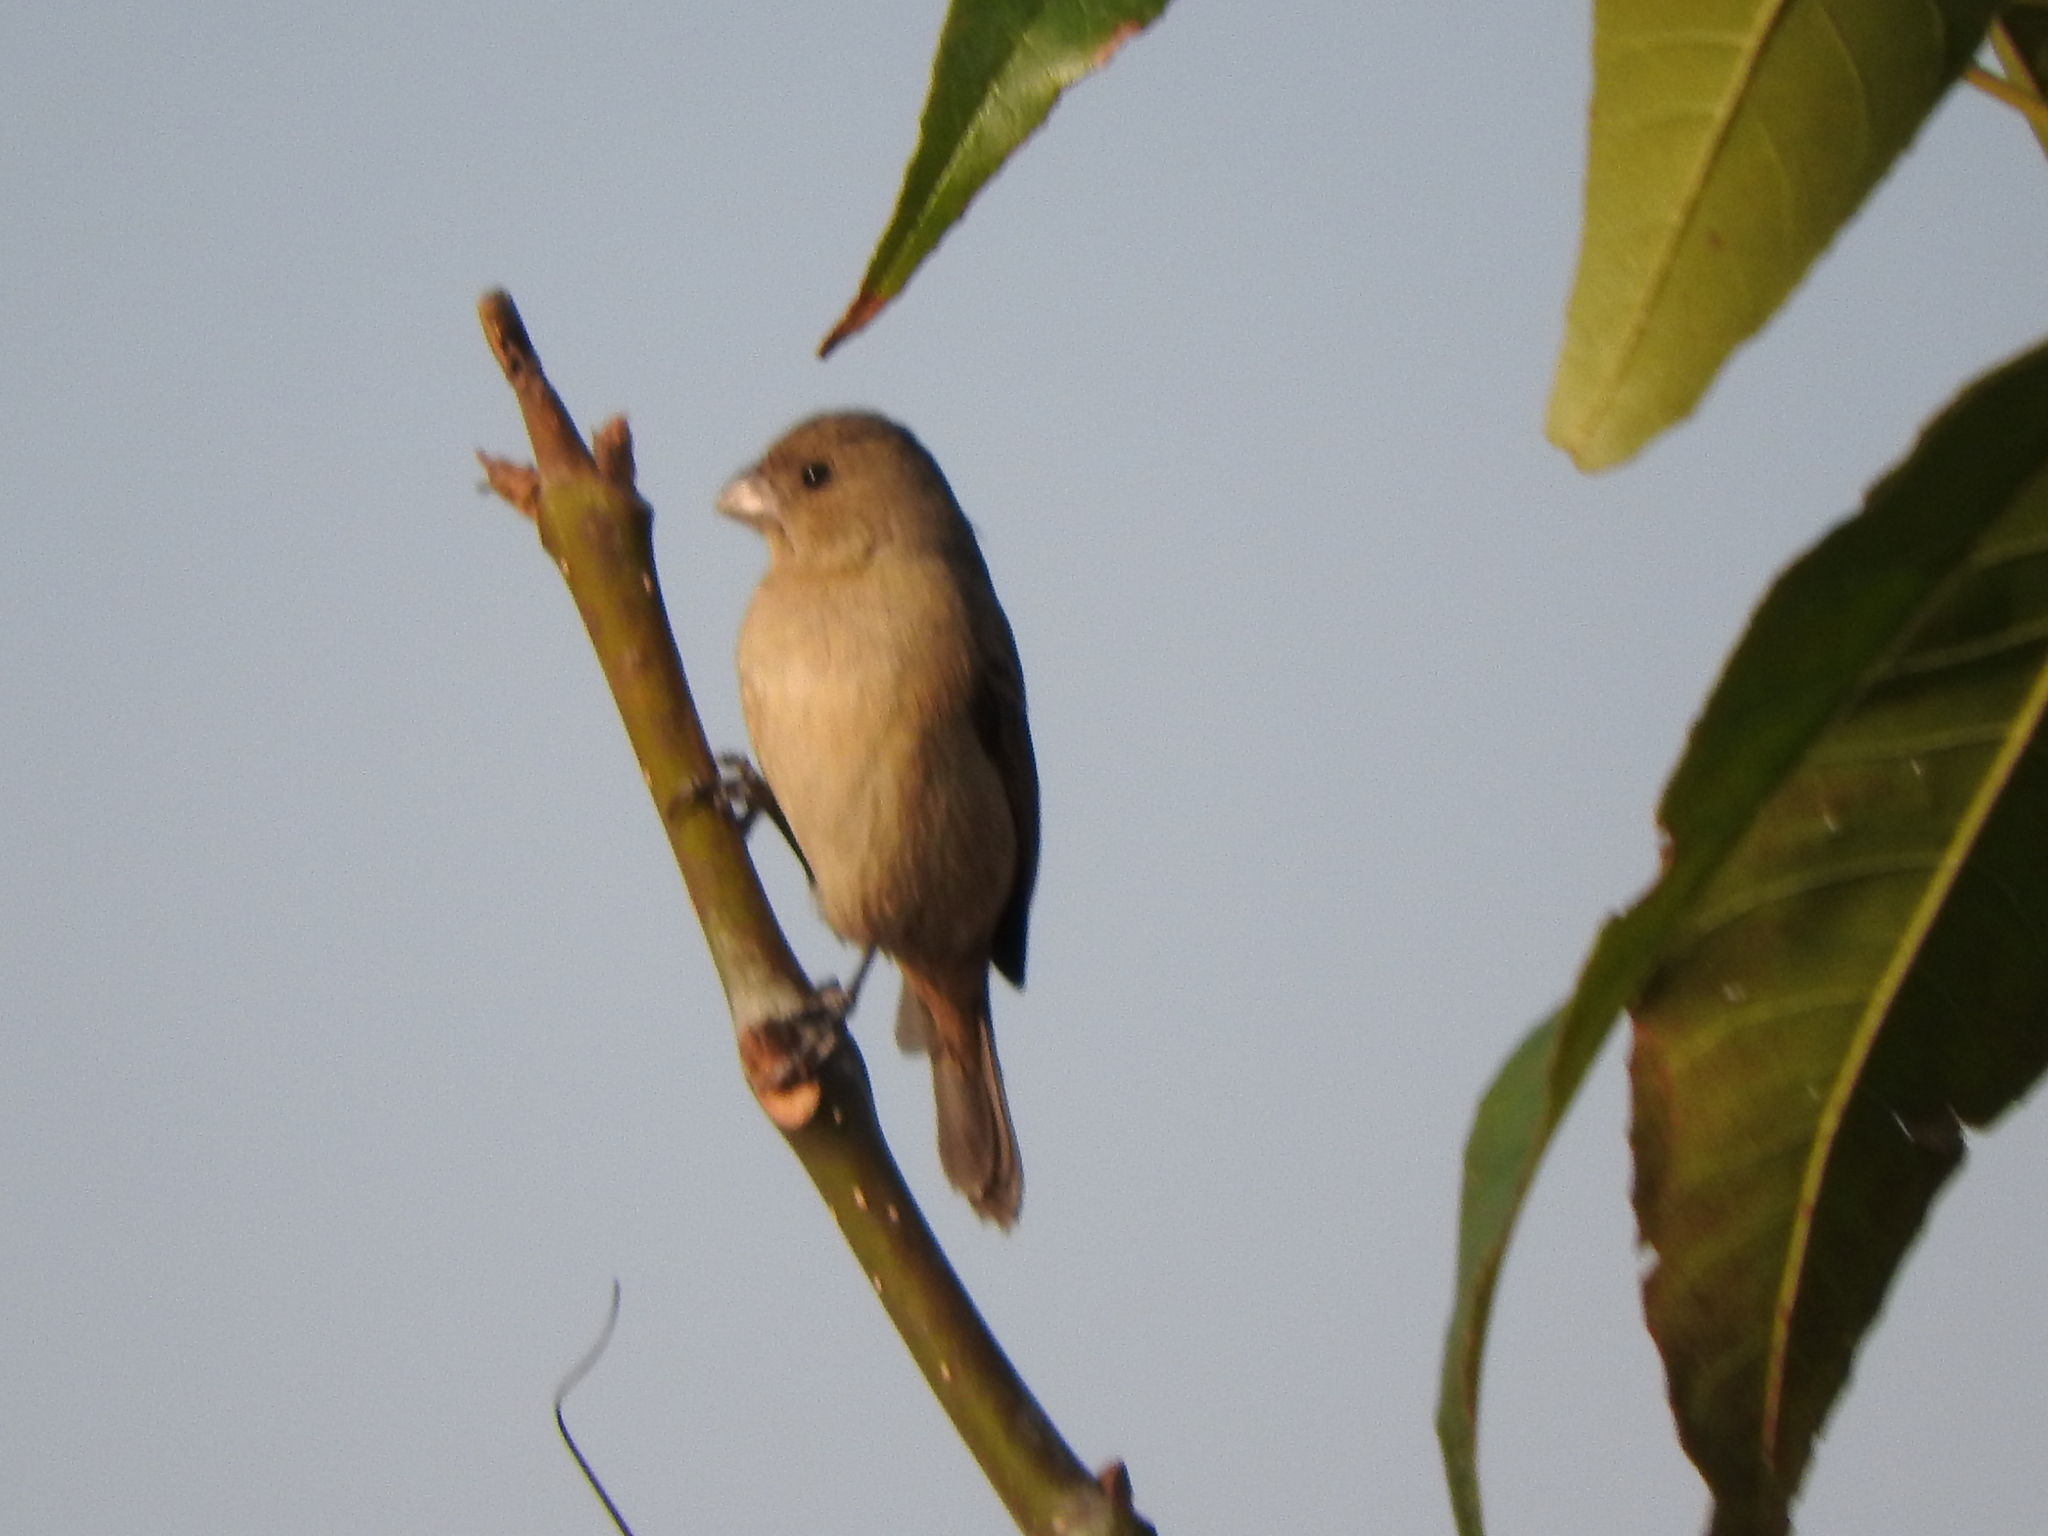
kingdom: Animalia
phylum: Chordata
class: Aves
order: Passeriformes
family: Thraupidae
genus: Sporophila
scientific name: Sporophila torqueola
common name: White-collared seedeater
